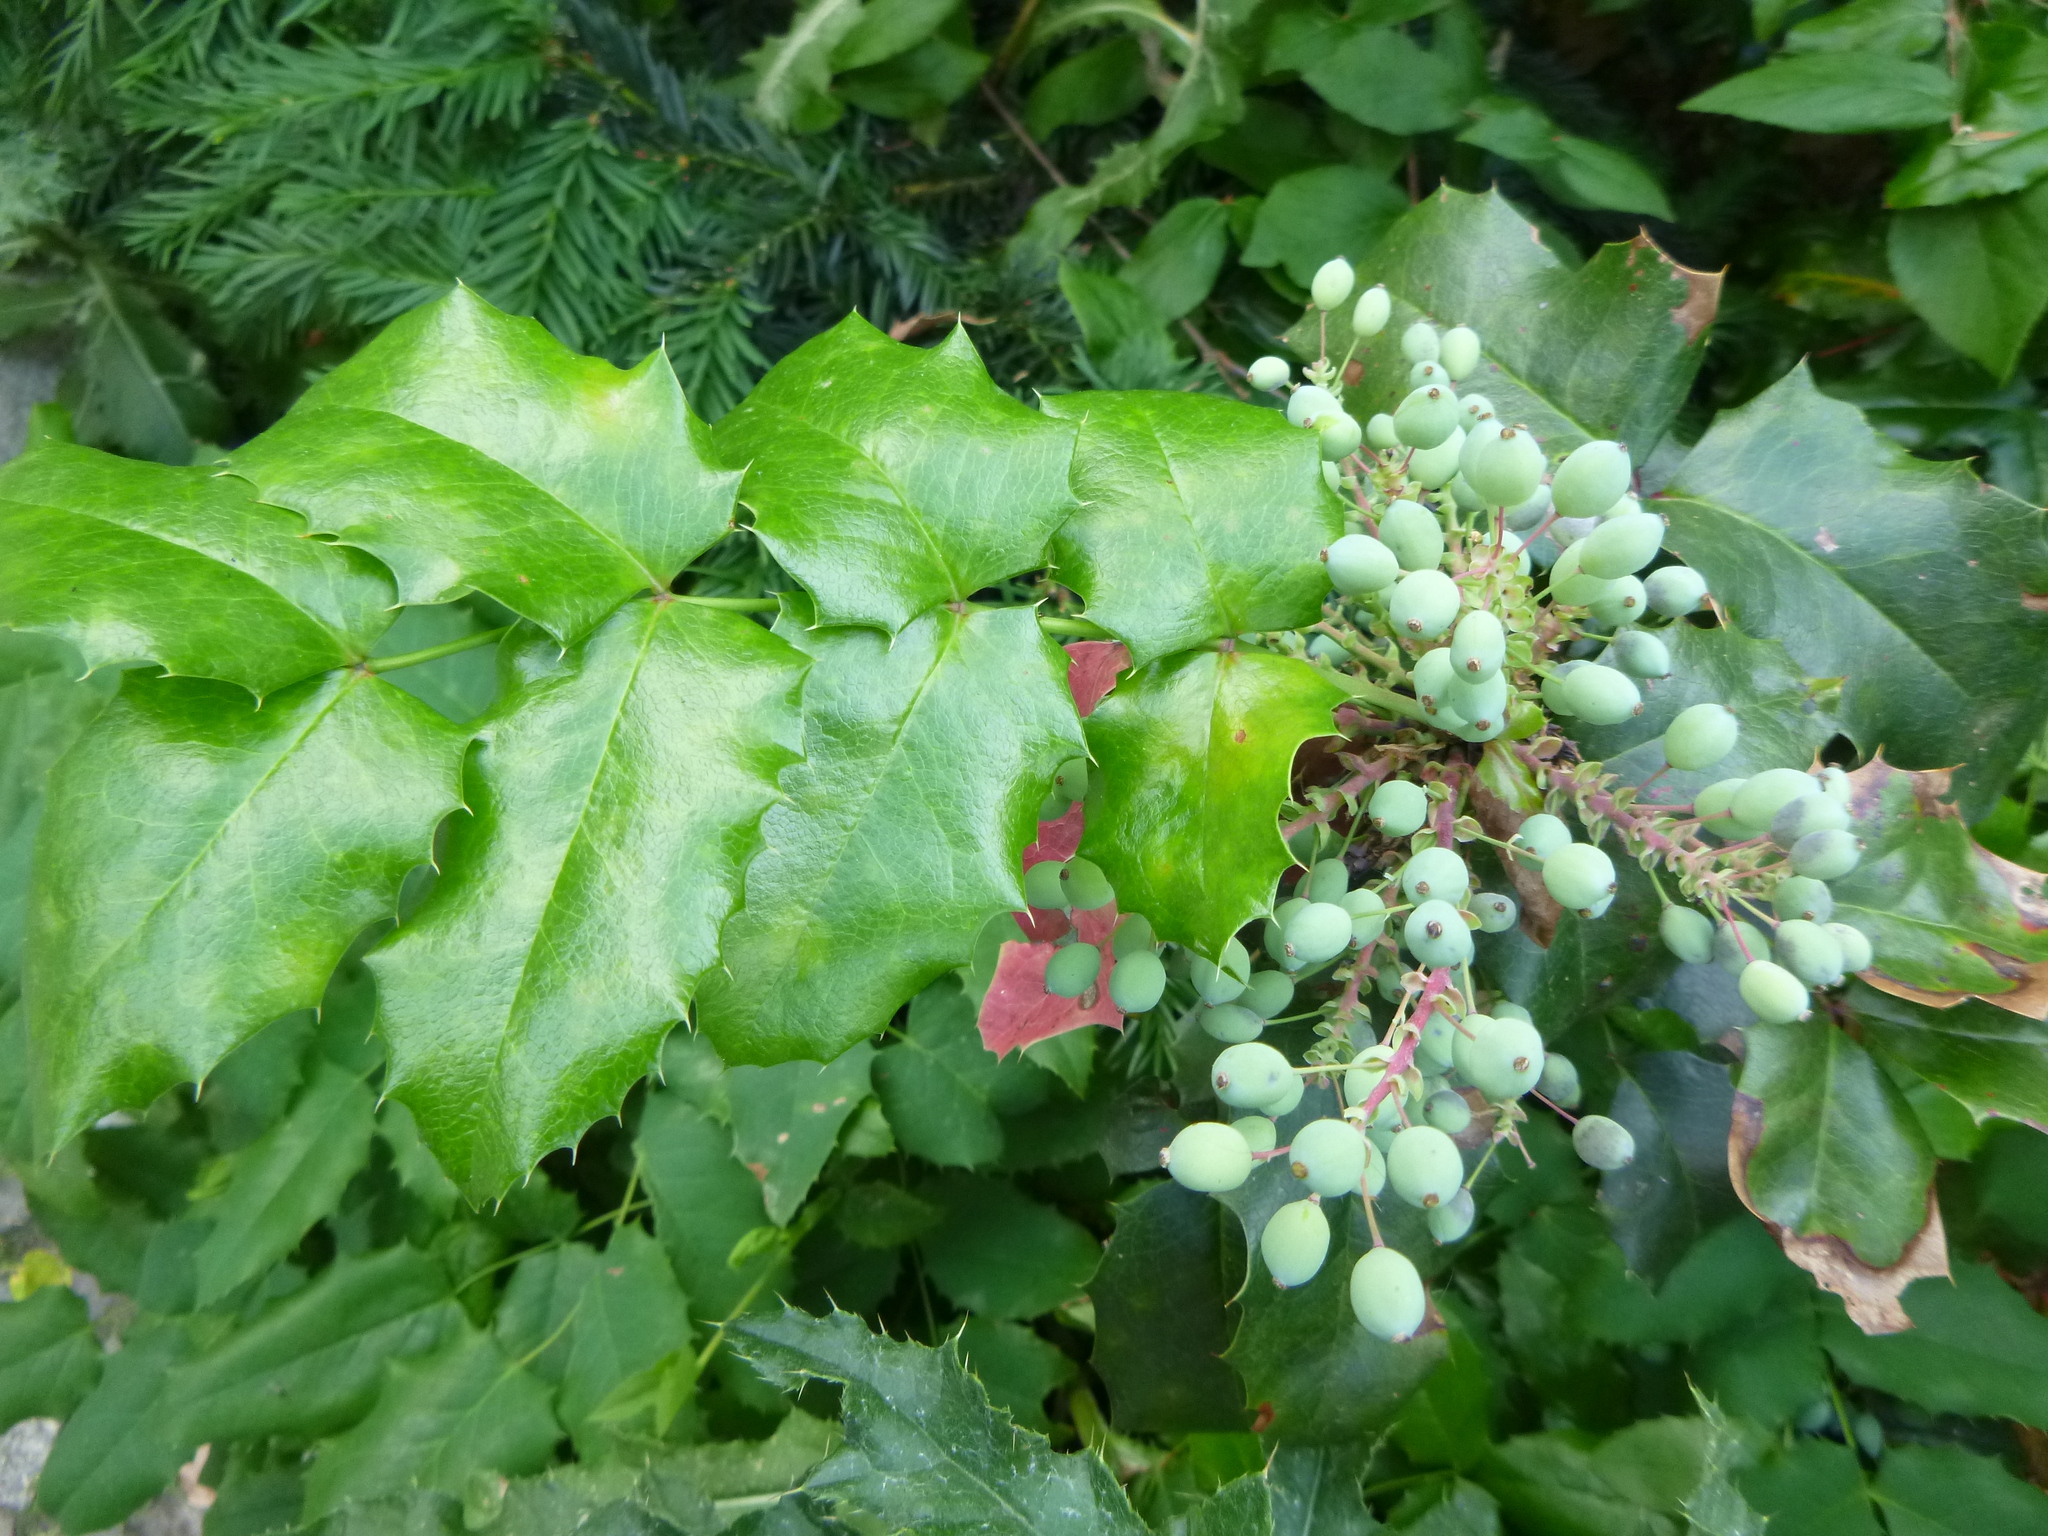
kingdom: Plantae
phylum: Tracheophyta
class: Magnoliopsida
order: Ranunculales
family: Berberidaceae
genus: Mahonia
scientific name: Mahonia aquifolium
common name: Oregon-grape
